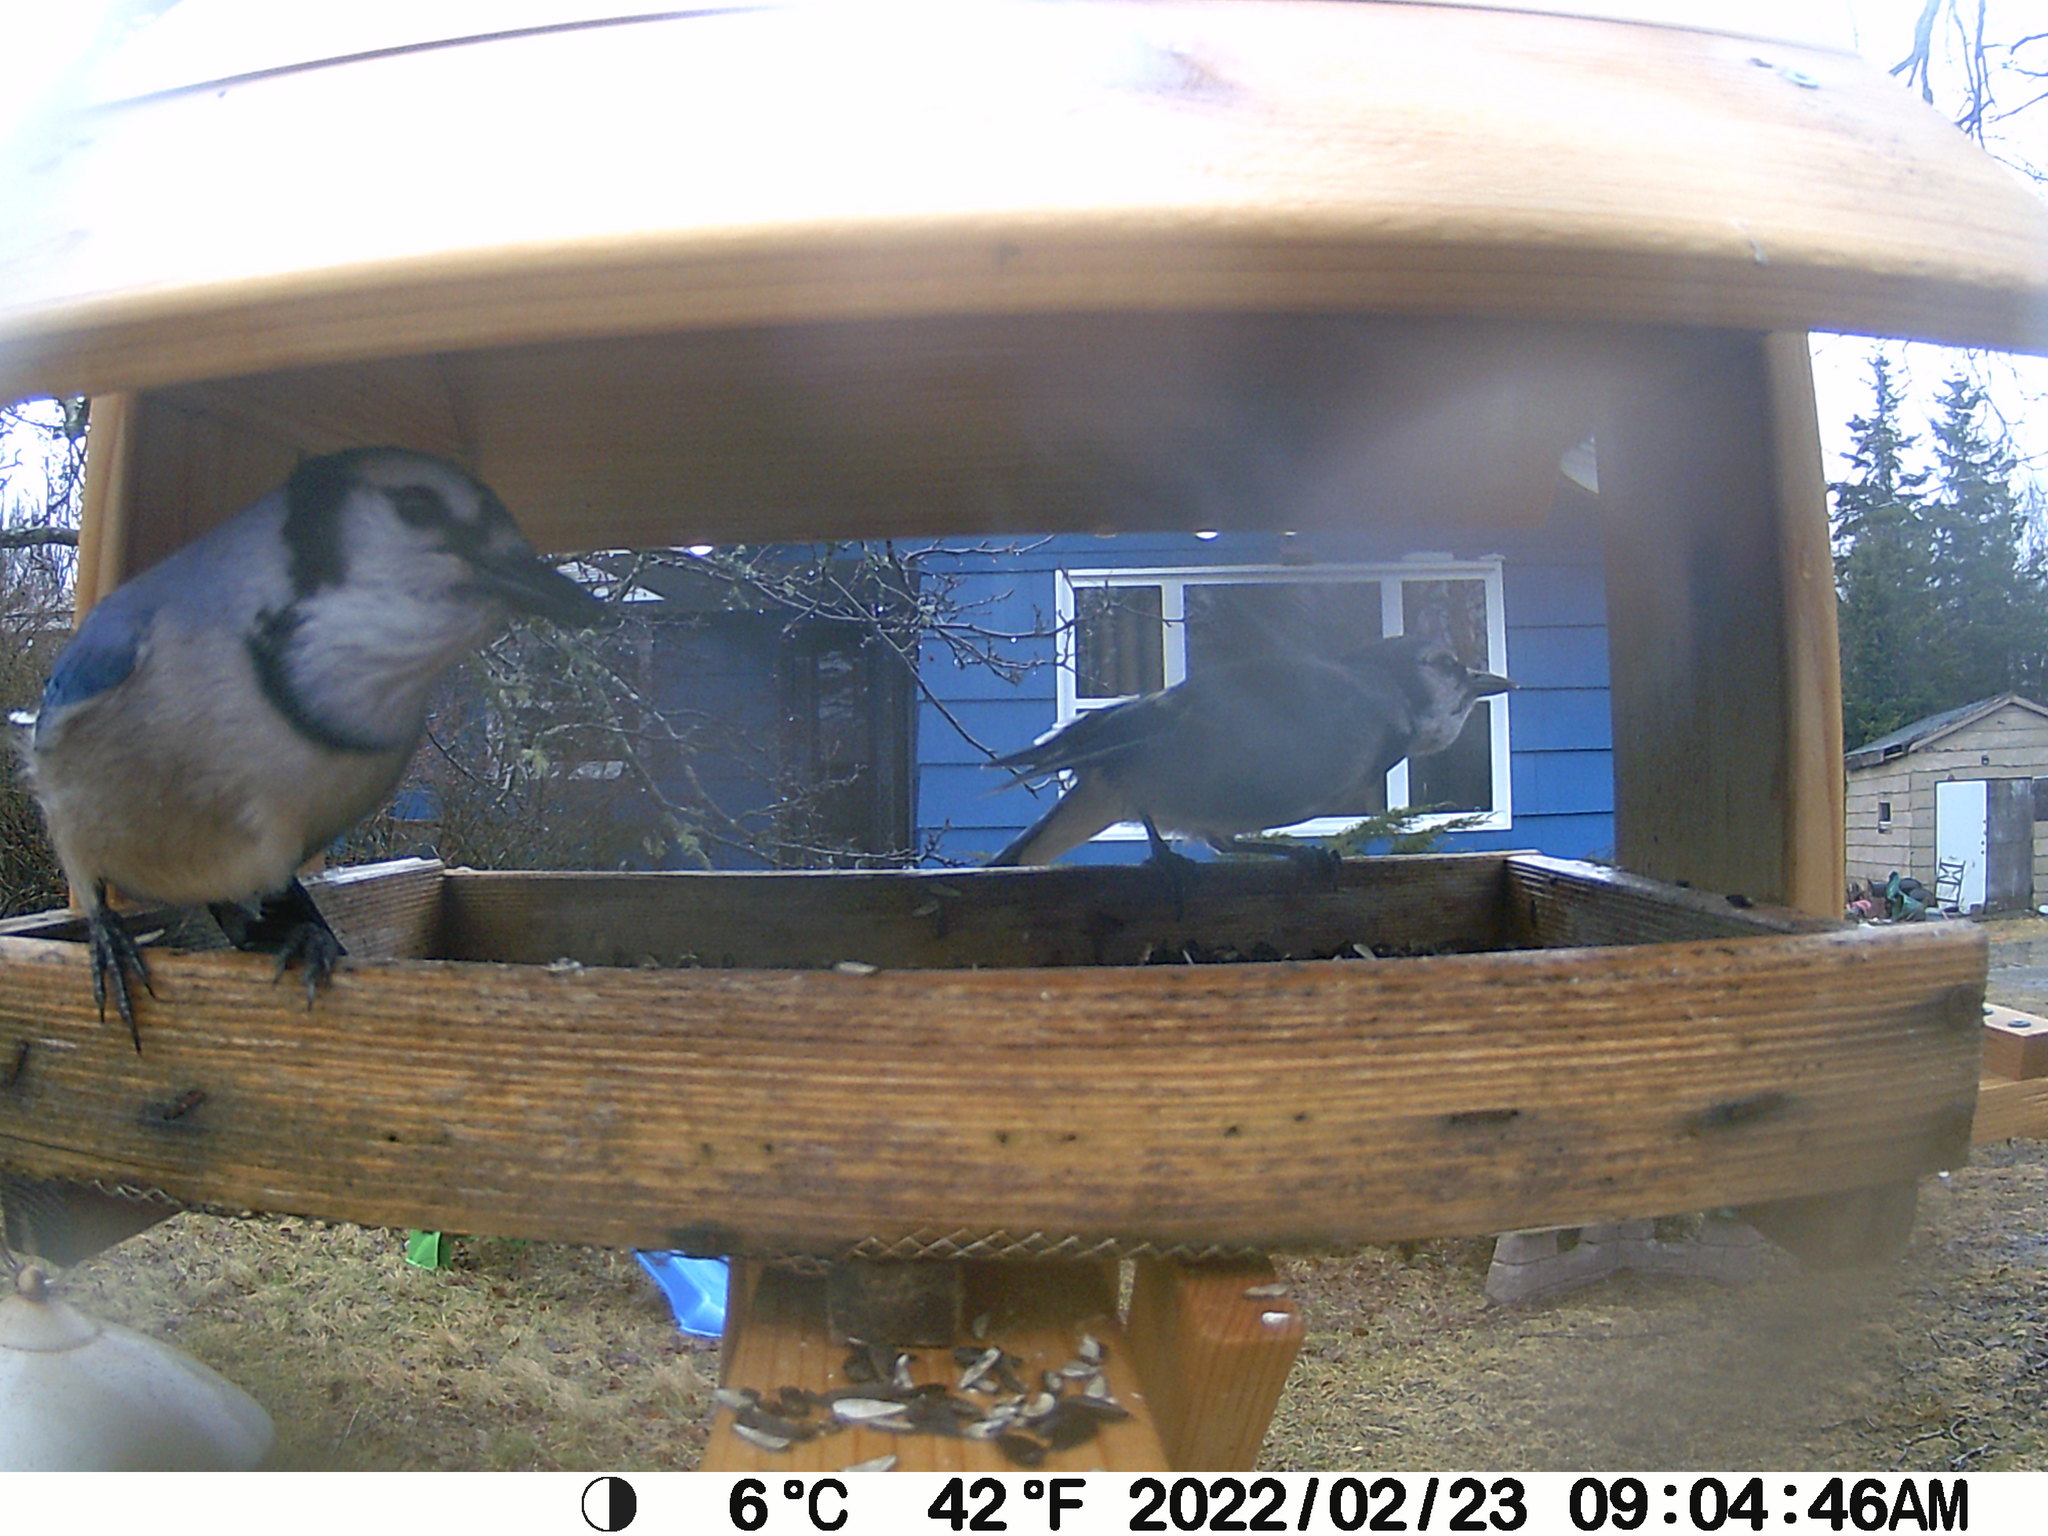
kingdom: Animalia
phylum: Chordata
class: Aves
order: Passeriformes
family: Corvidae
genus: Cyanocitta
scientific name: Cyanocitta cristata
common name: Blue jay
